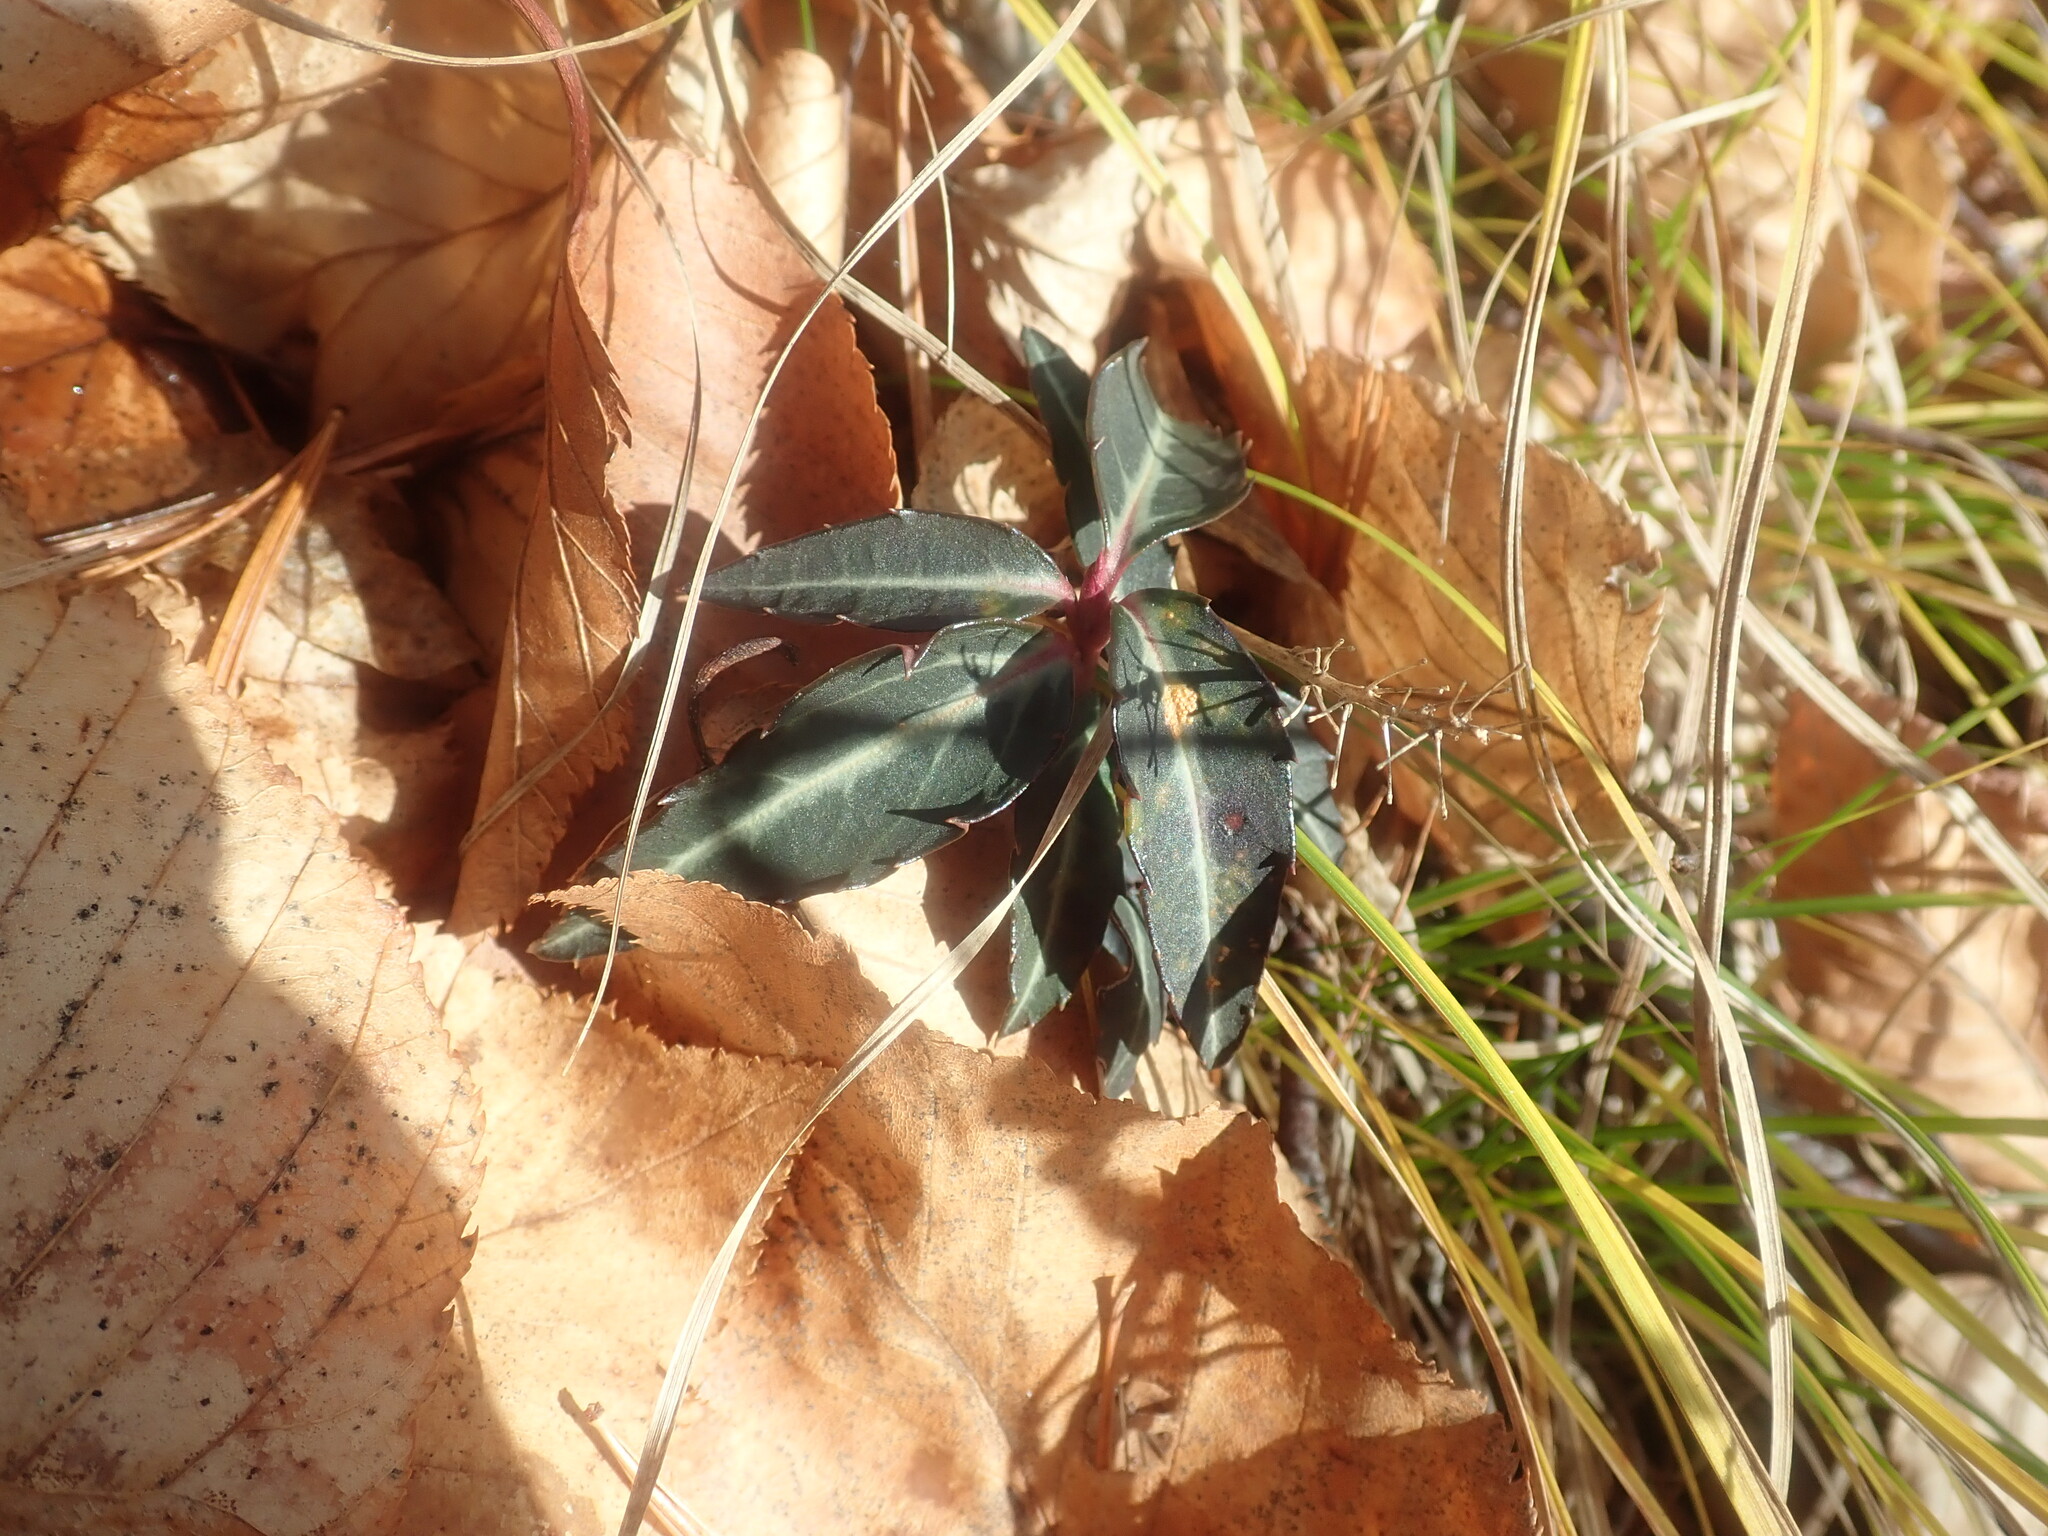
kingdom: Plantae
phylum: Tracheophyta
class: Magnoliopsida
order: Ericales
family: Ericaceae
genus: Chimaphila
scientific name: Chimaphila maculata
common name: Spotted pipsissewa
